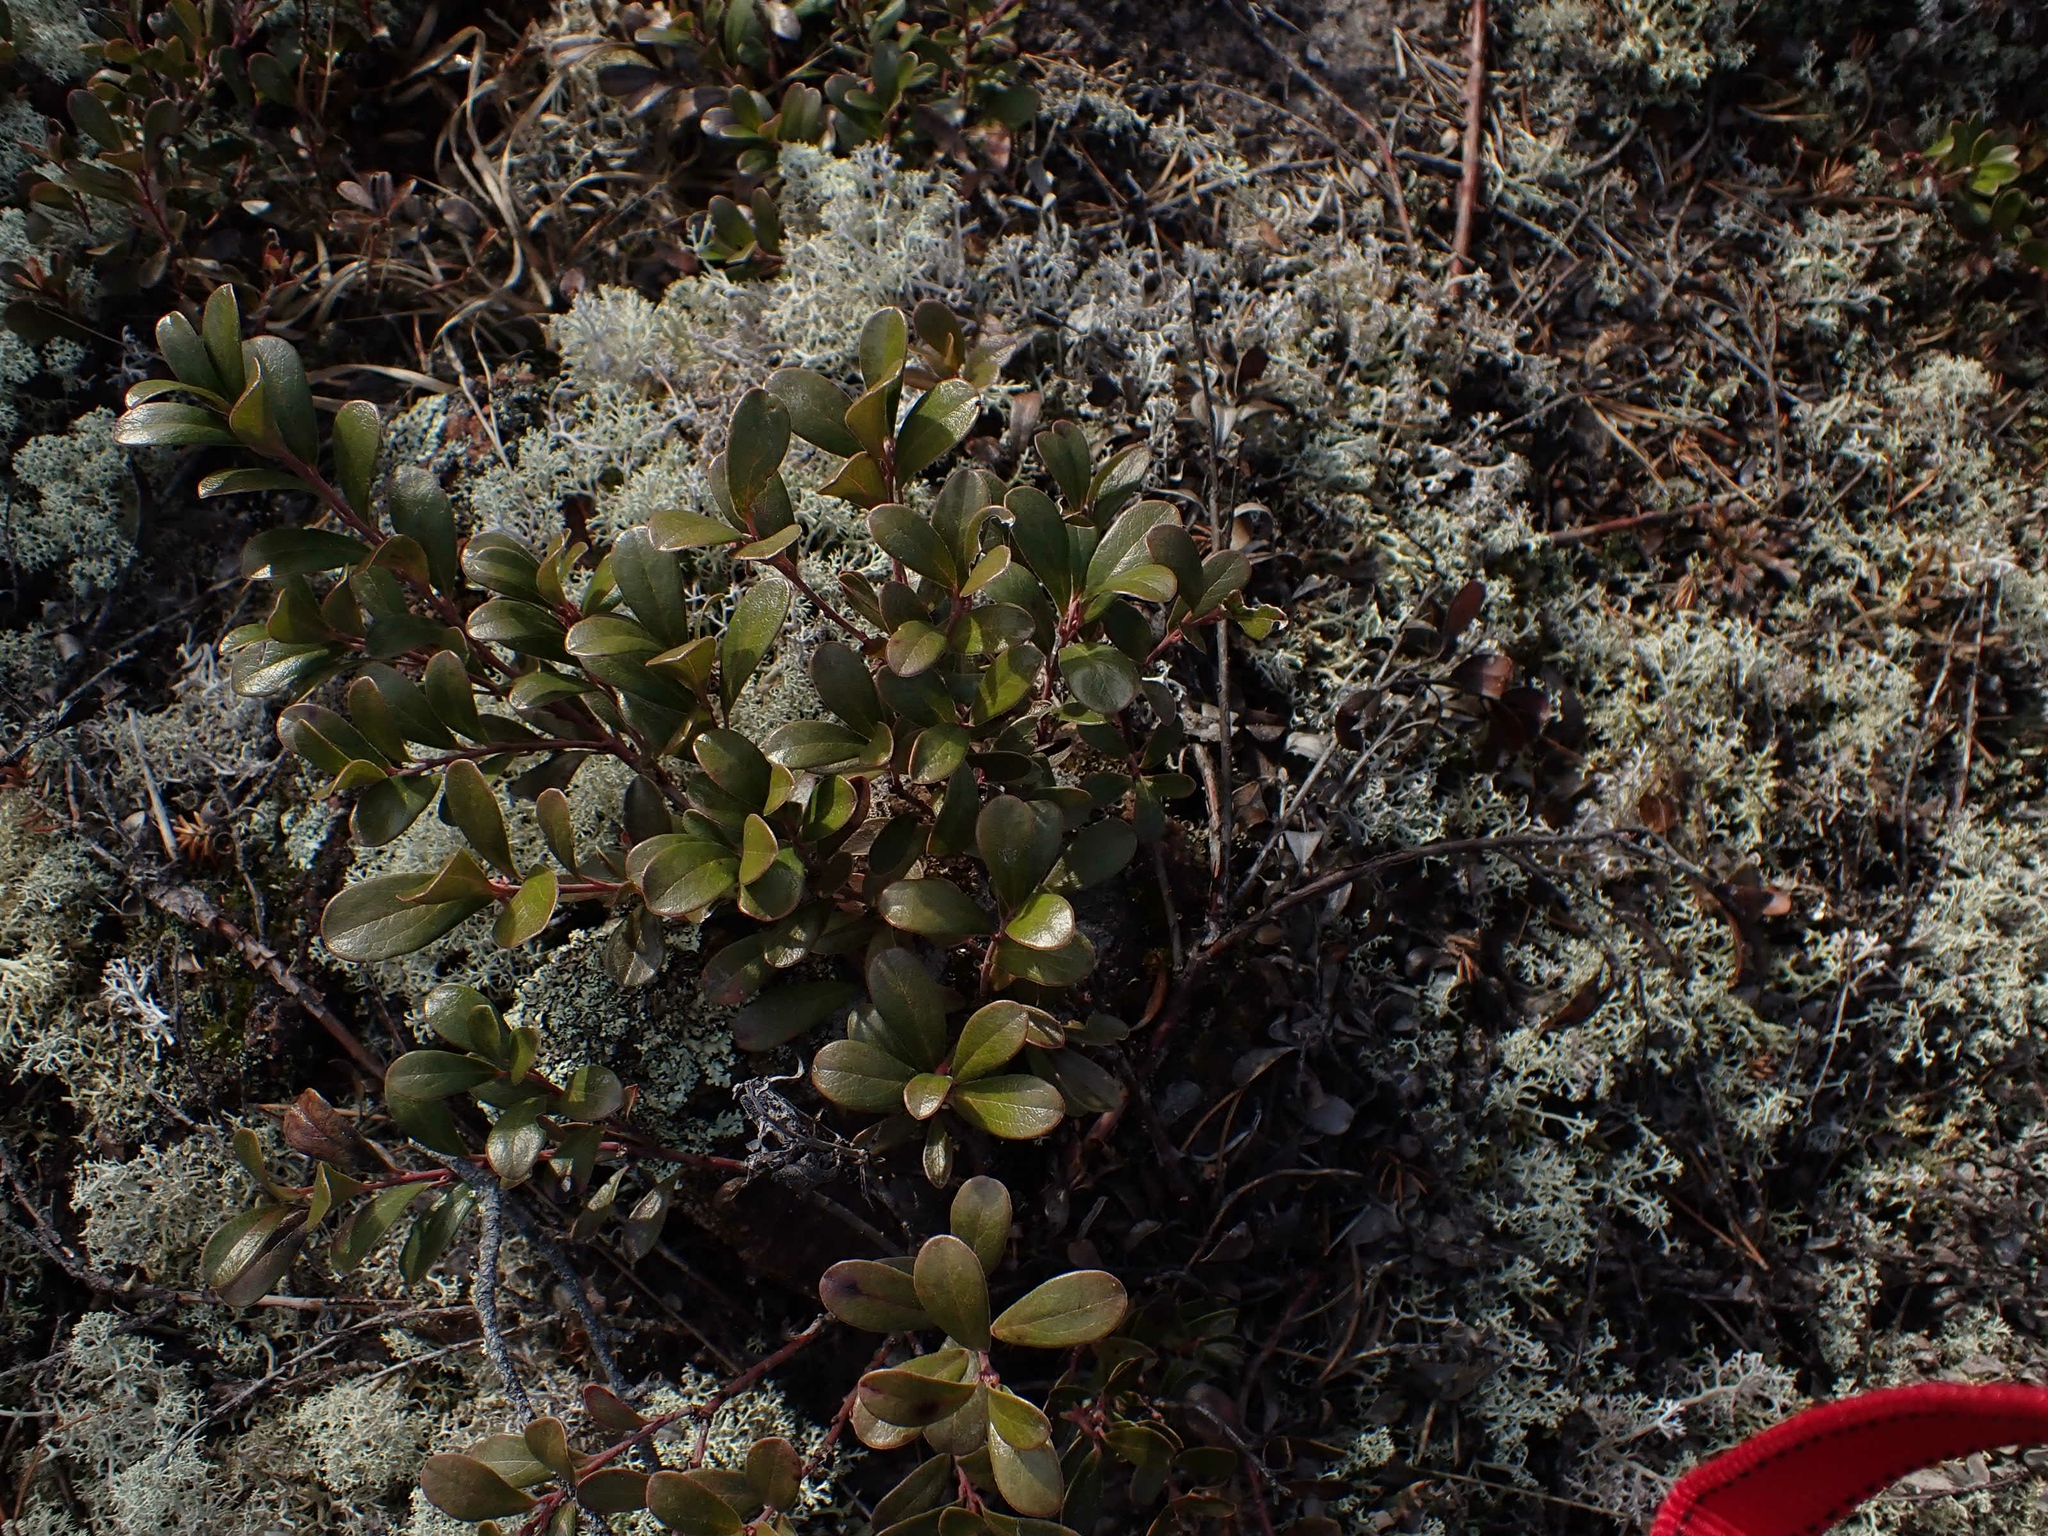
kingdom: Plantae
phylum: Tracheophyta
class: Magnoliopsida
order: Ericales
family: Ericaceae
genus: Arctostaphylos
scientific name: Arctostaphylos uva-ursi
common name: Bearberry
